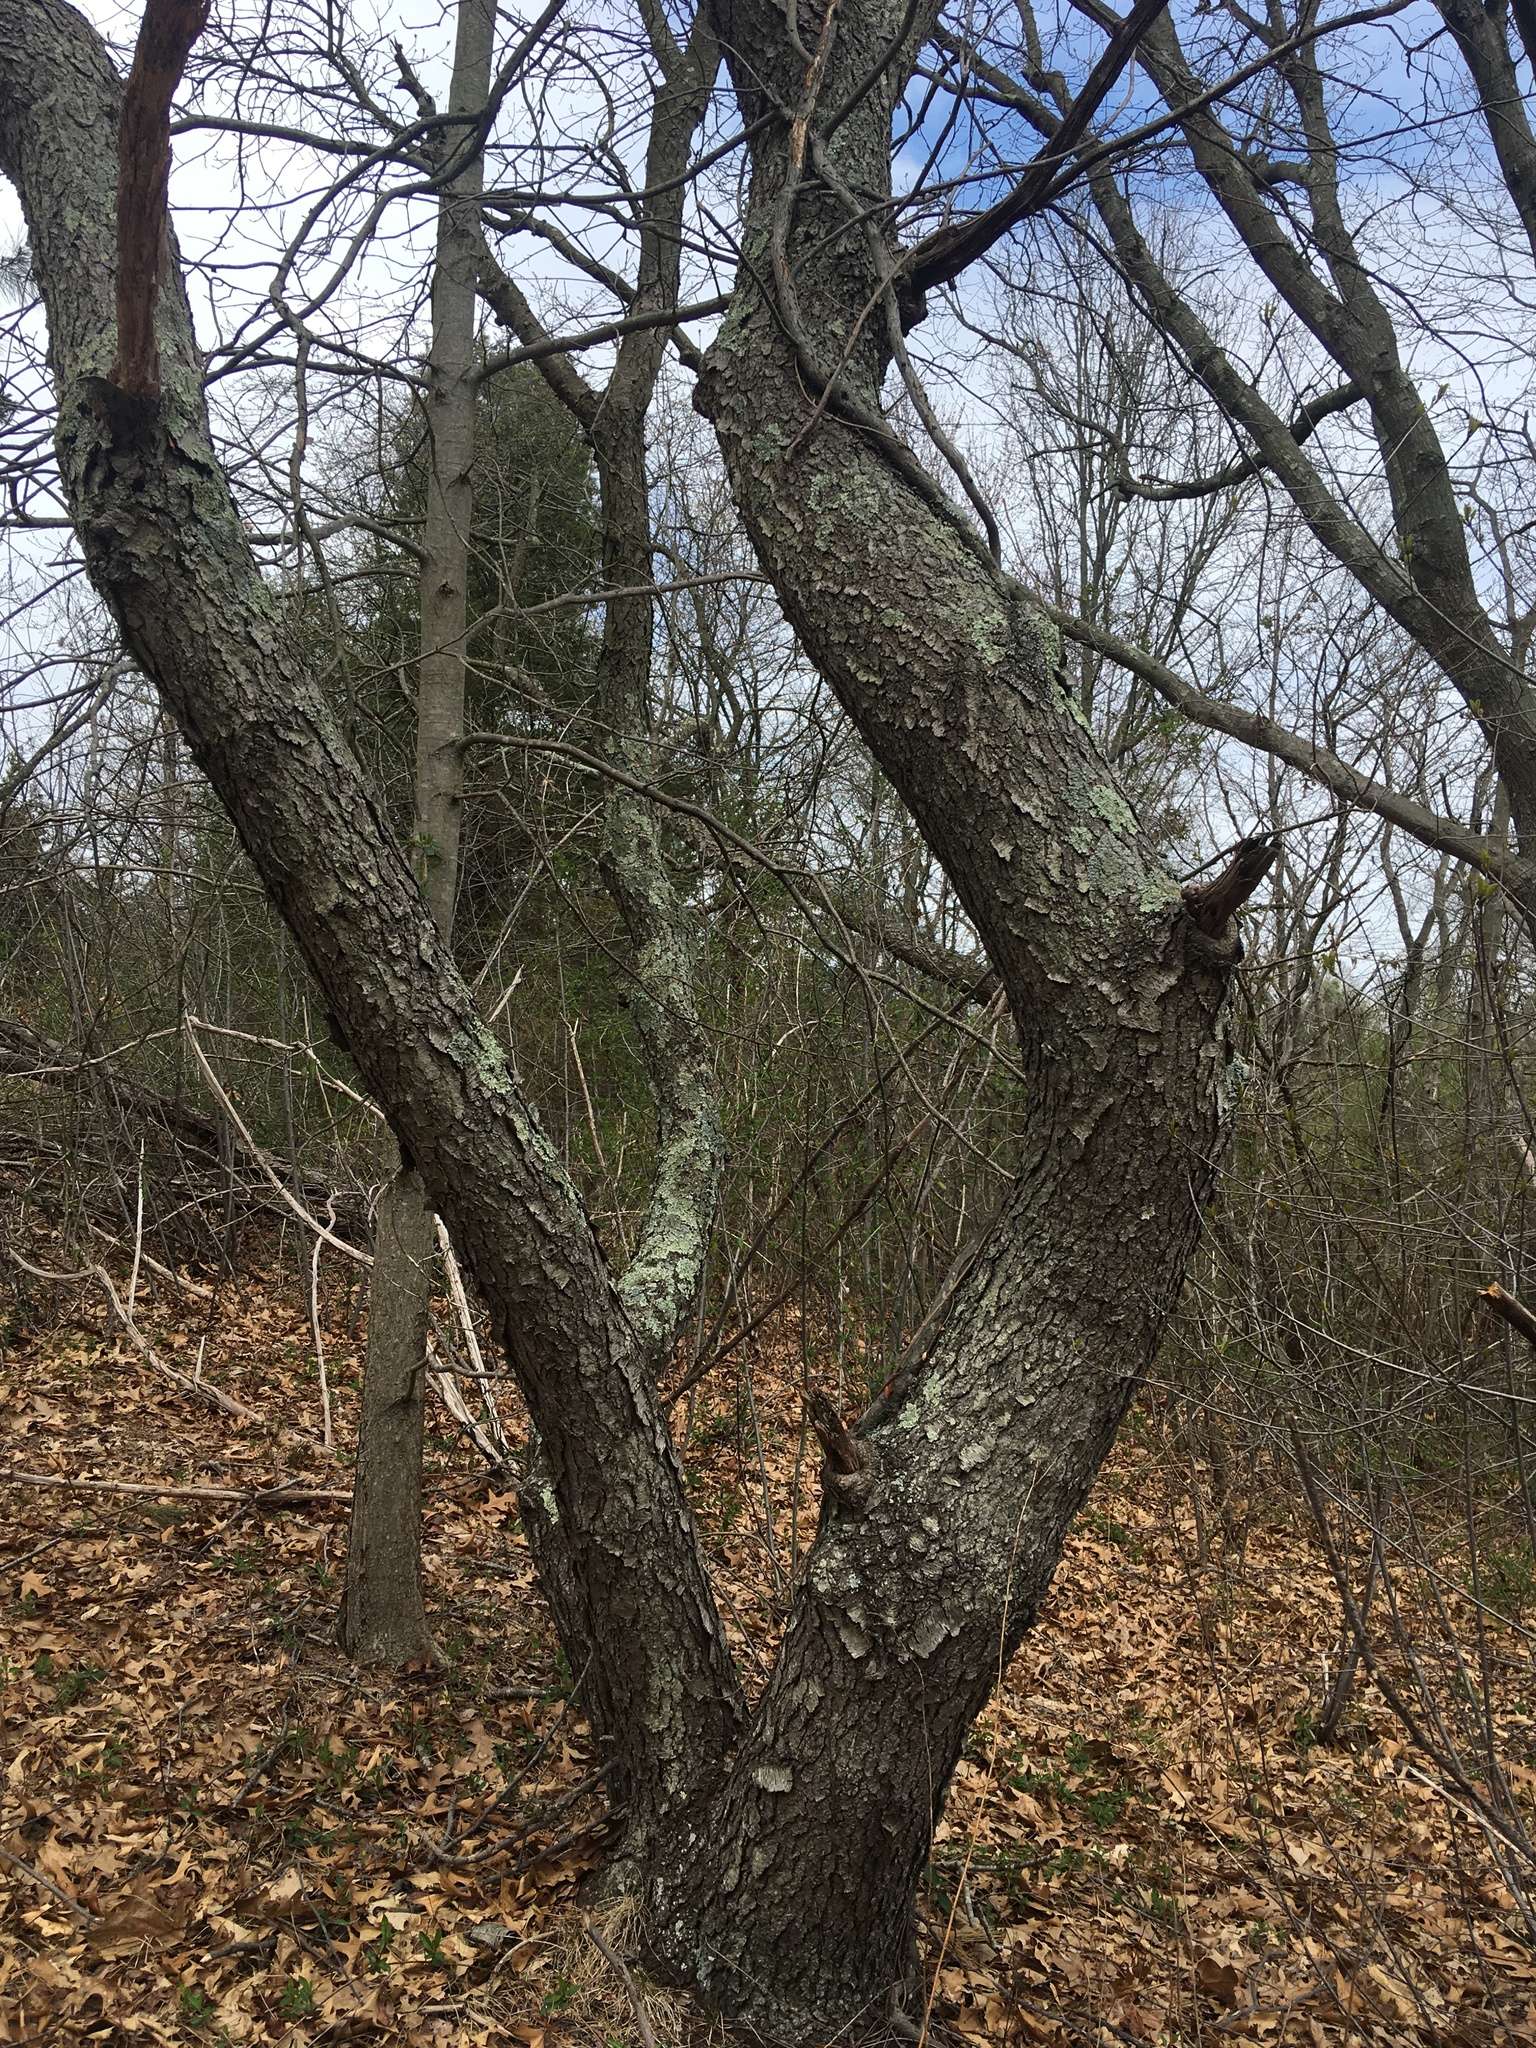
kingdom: Plantae
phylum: Tracheophyta
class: Magnoliopsida
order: Rosales
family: Rosaceae
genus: Prunus
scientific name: Prunus serotina
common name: Black cherry
